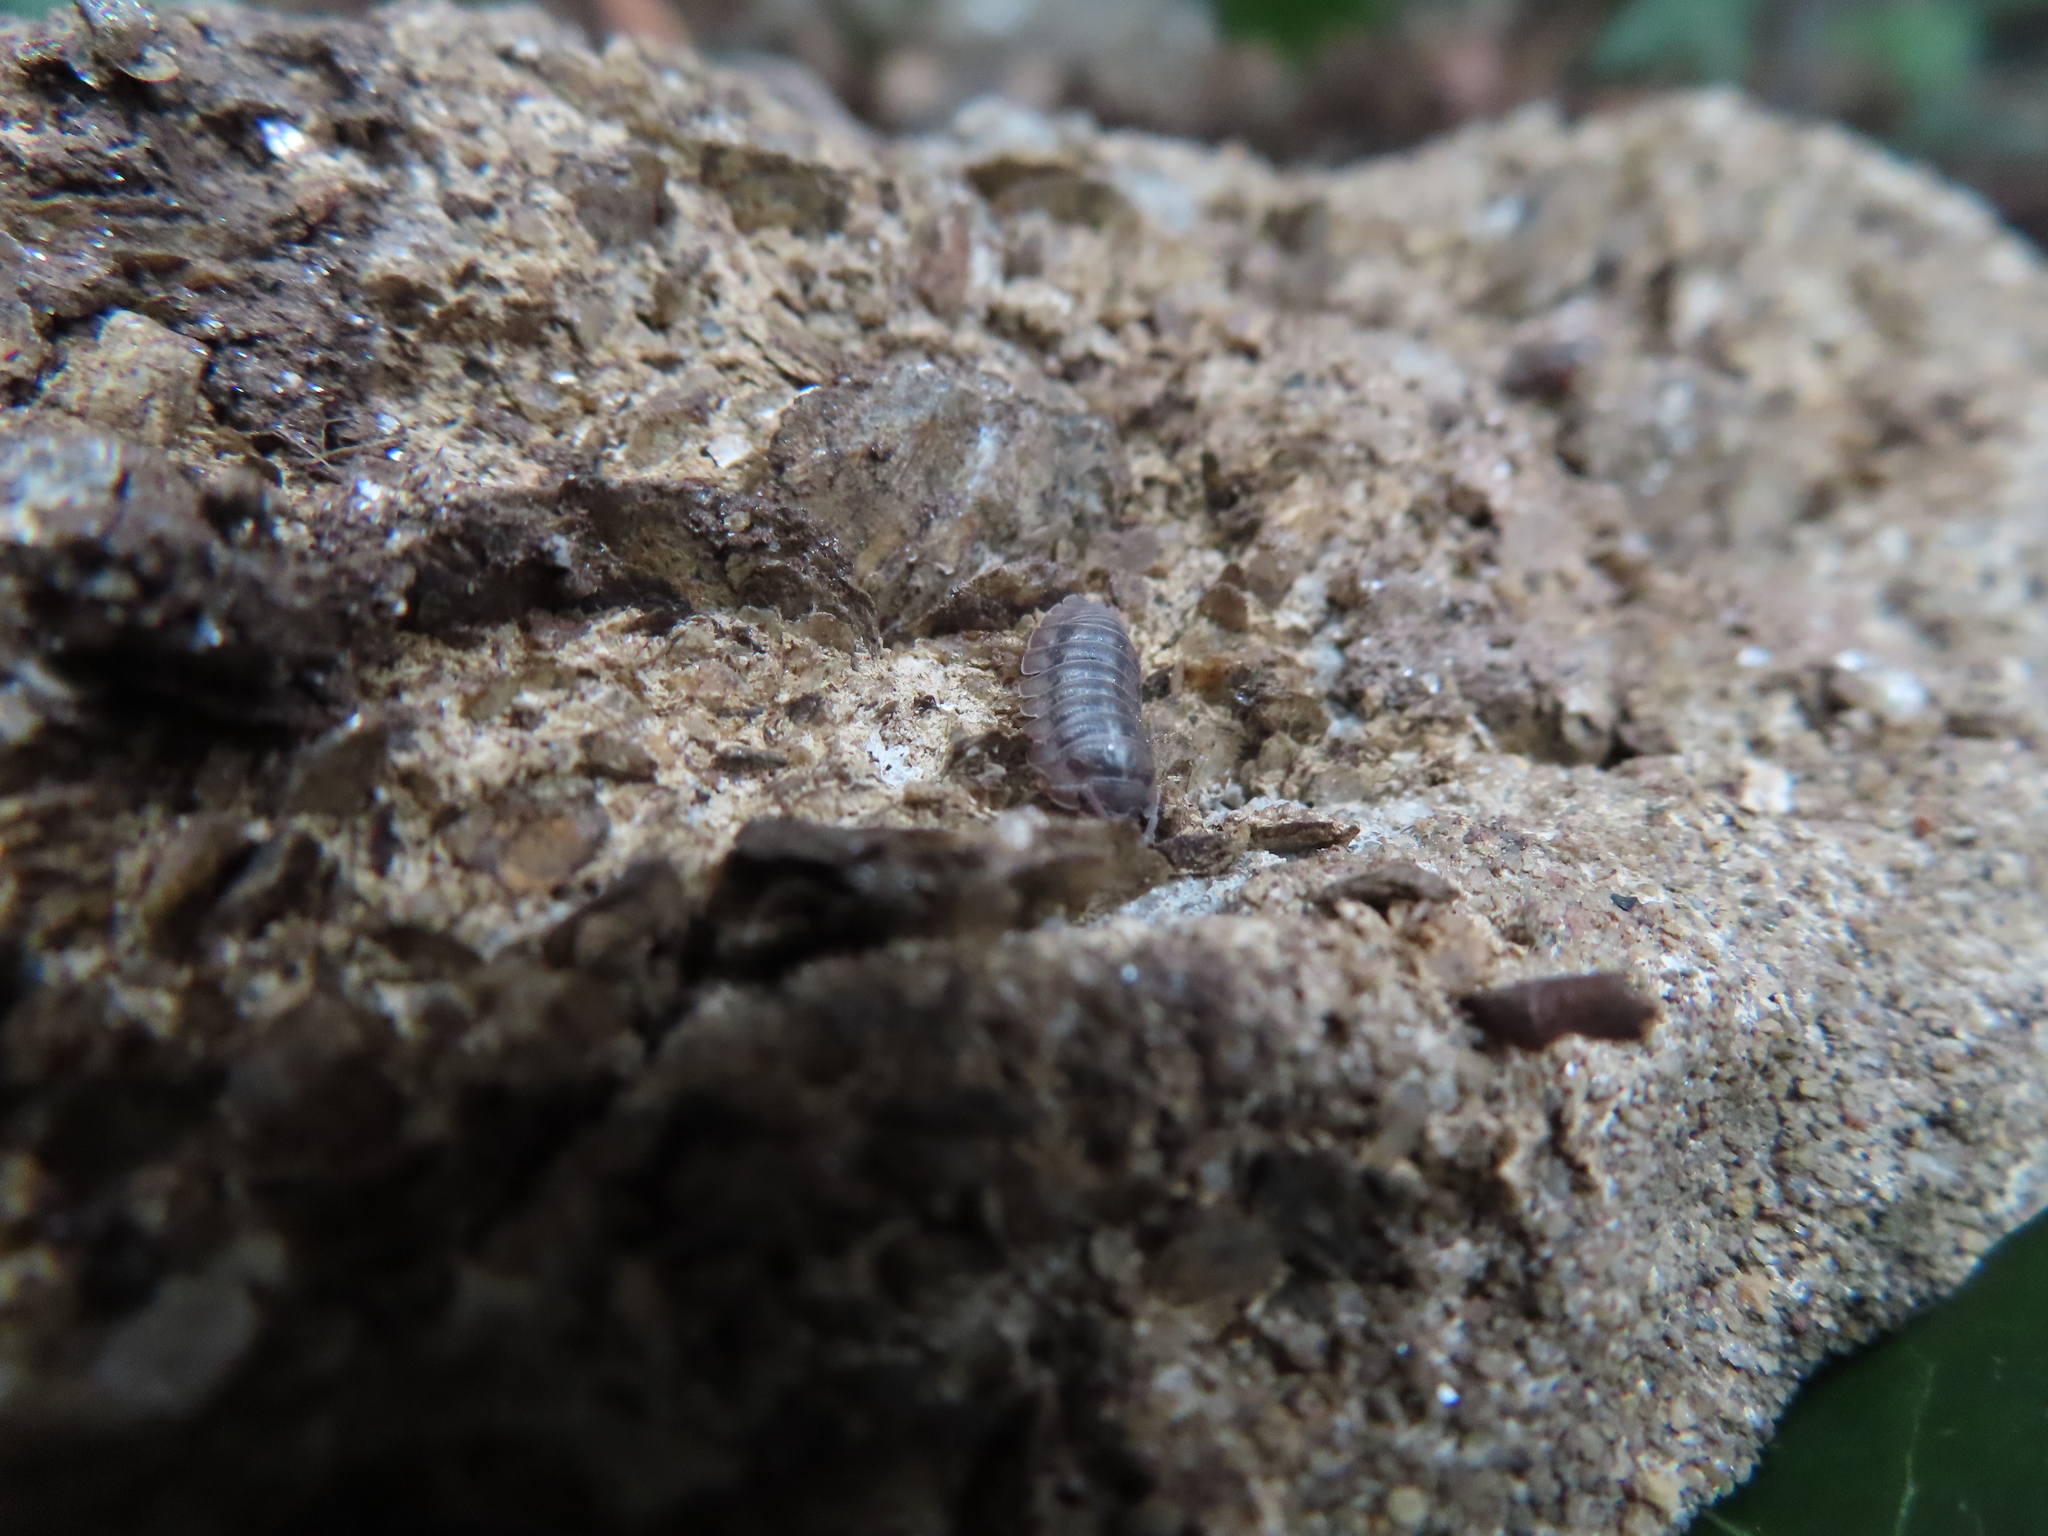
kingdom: Animalia
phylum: Arthropoda
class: Malacostraca
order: Isopoda
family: Armadillidiidae
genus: Armadillidium
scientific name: Armadillidium nasatum
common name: Isopod
